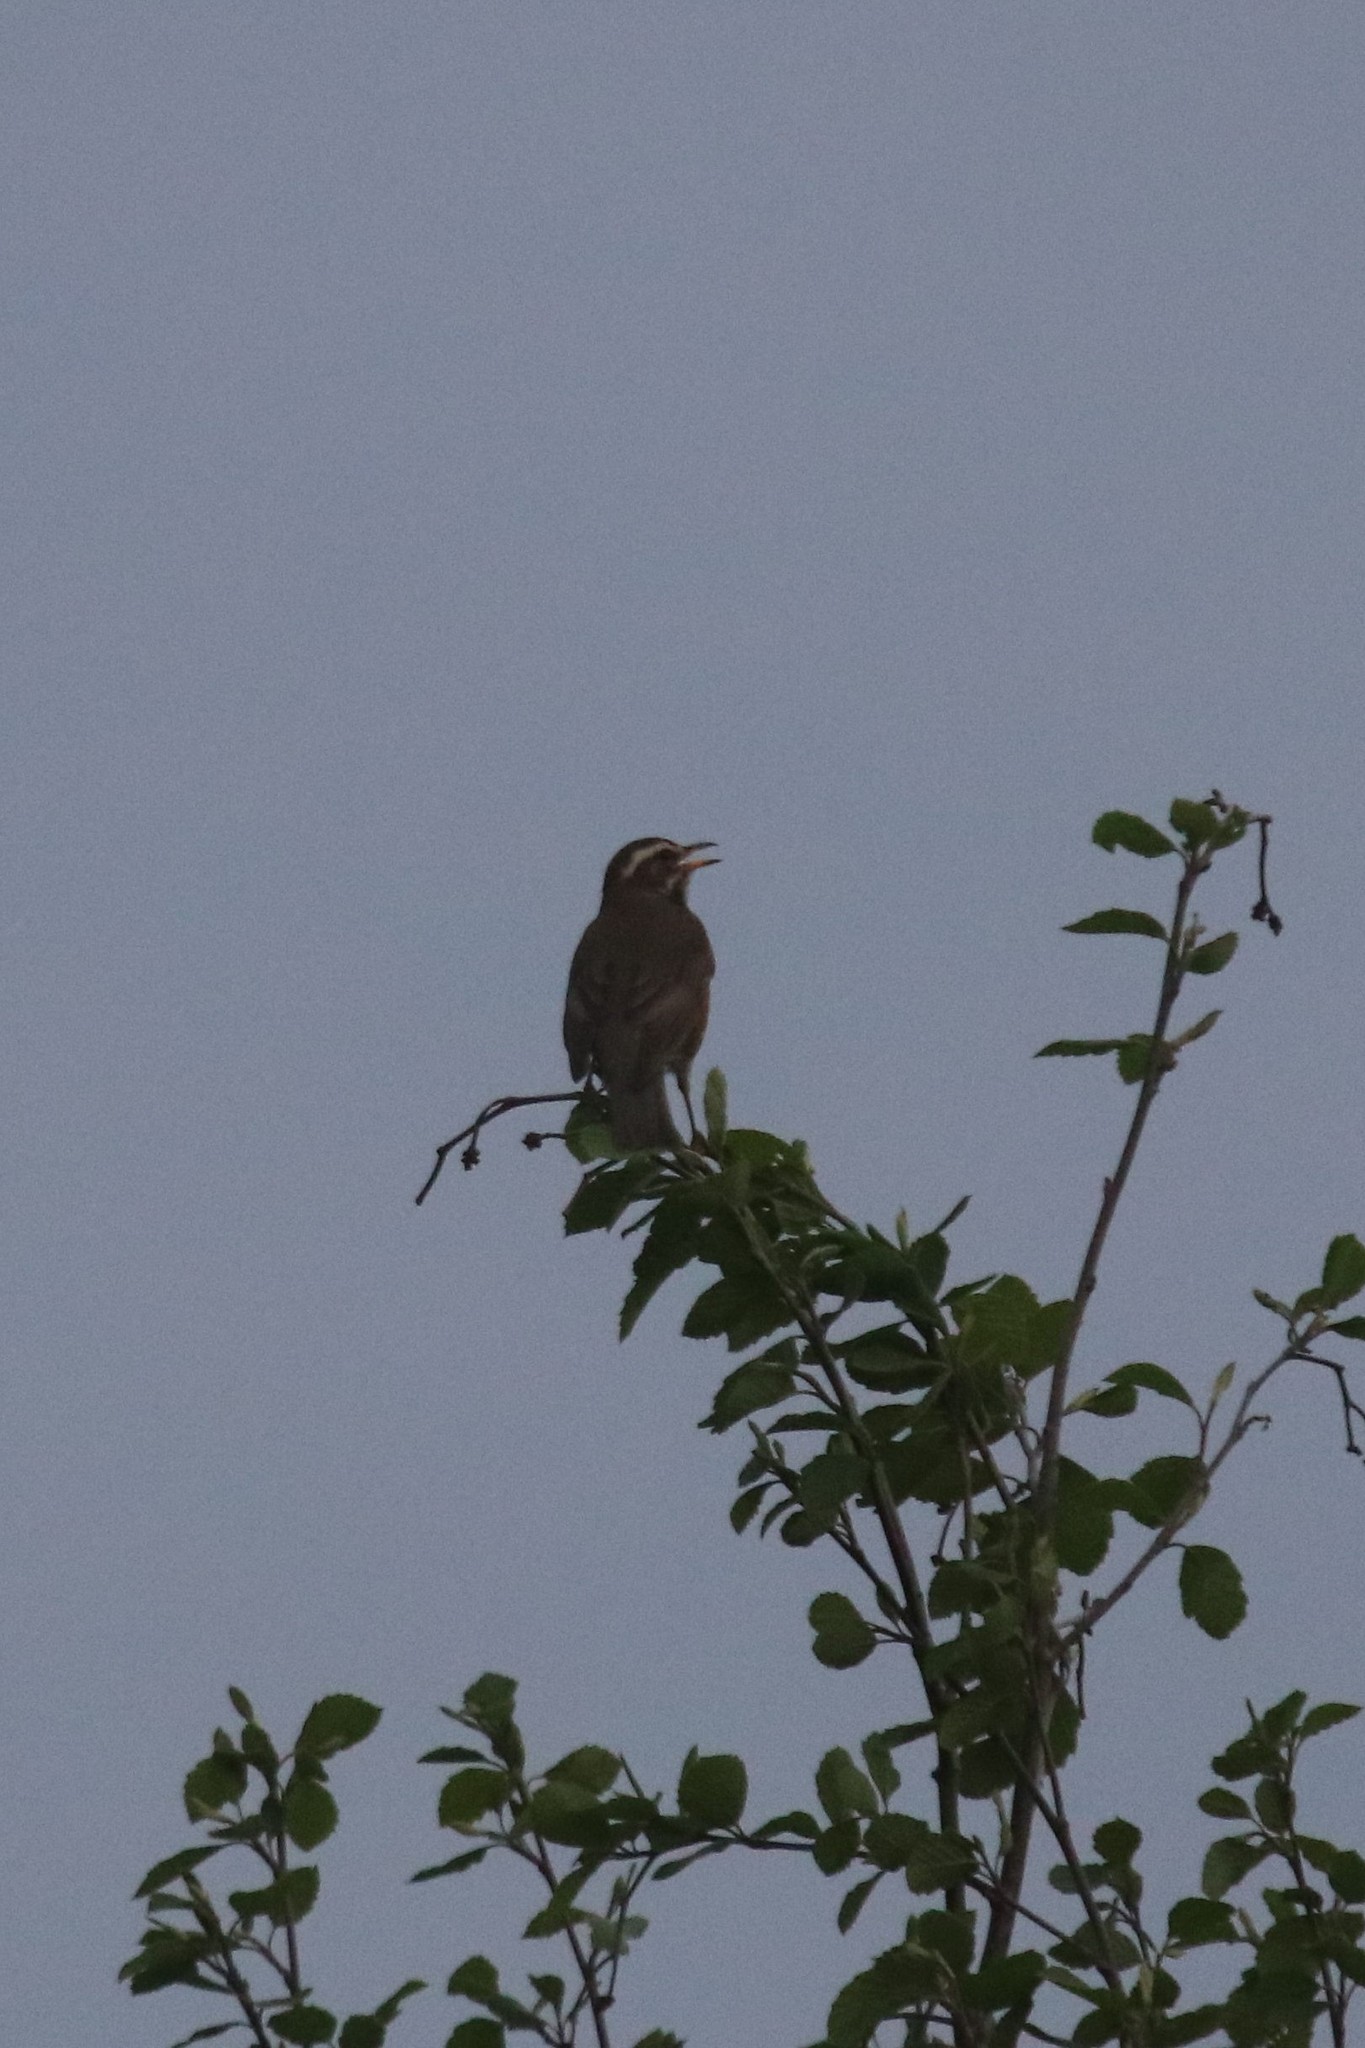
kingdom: Animalia
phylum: Chordata
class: Aves
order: Passeriformes
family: Turdidae
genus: Turdus
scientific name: Turdus iliacus
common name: Redwing
